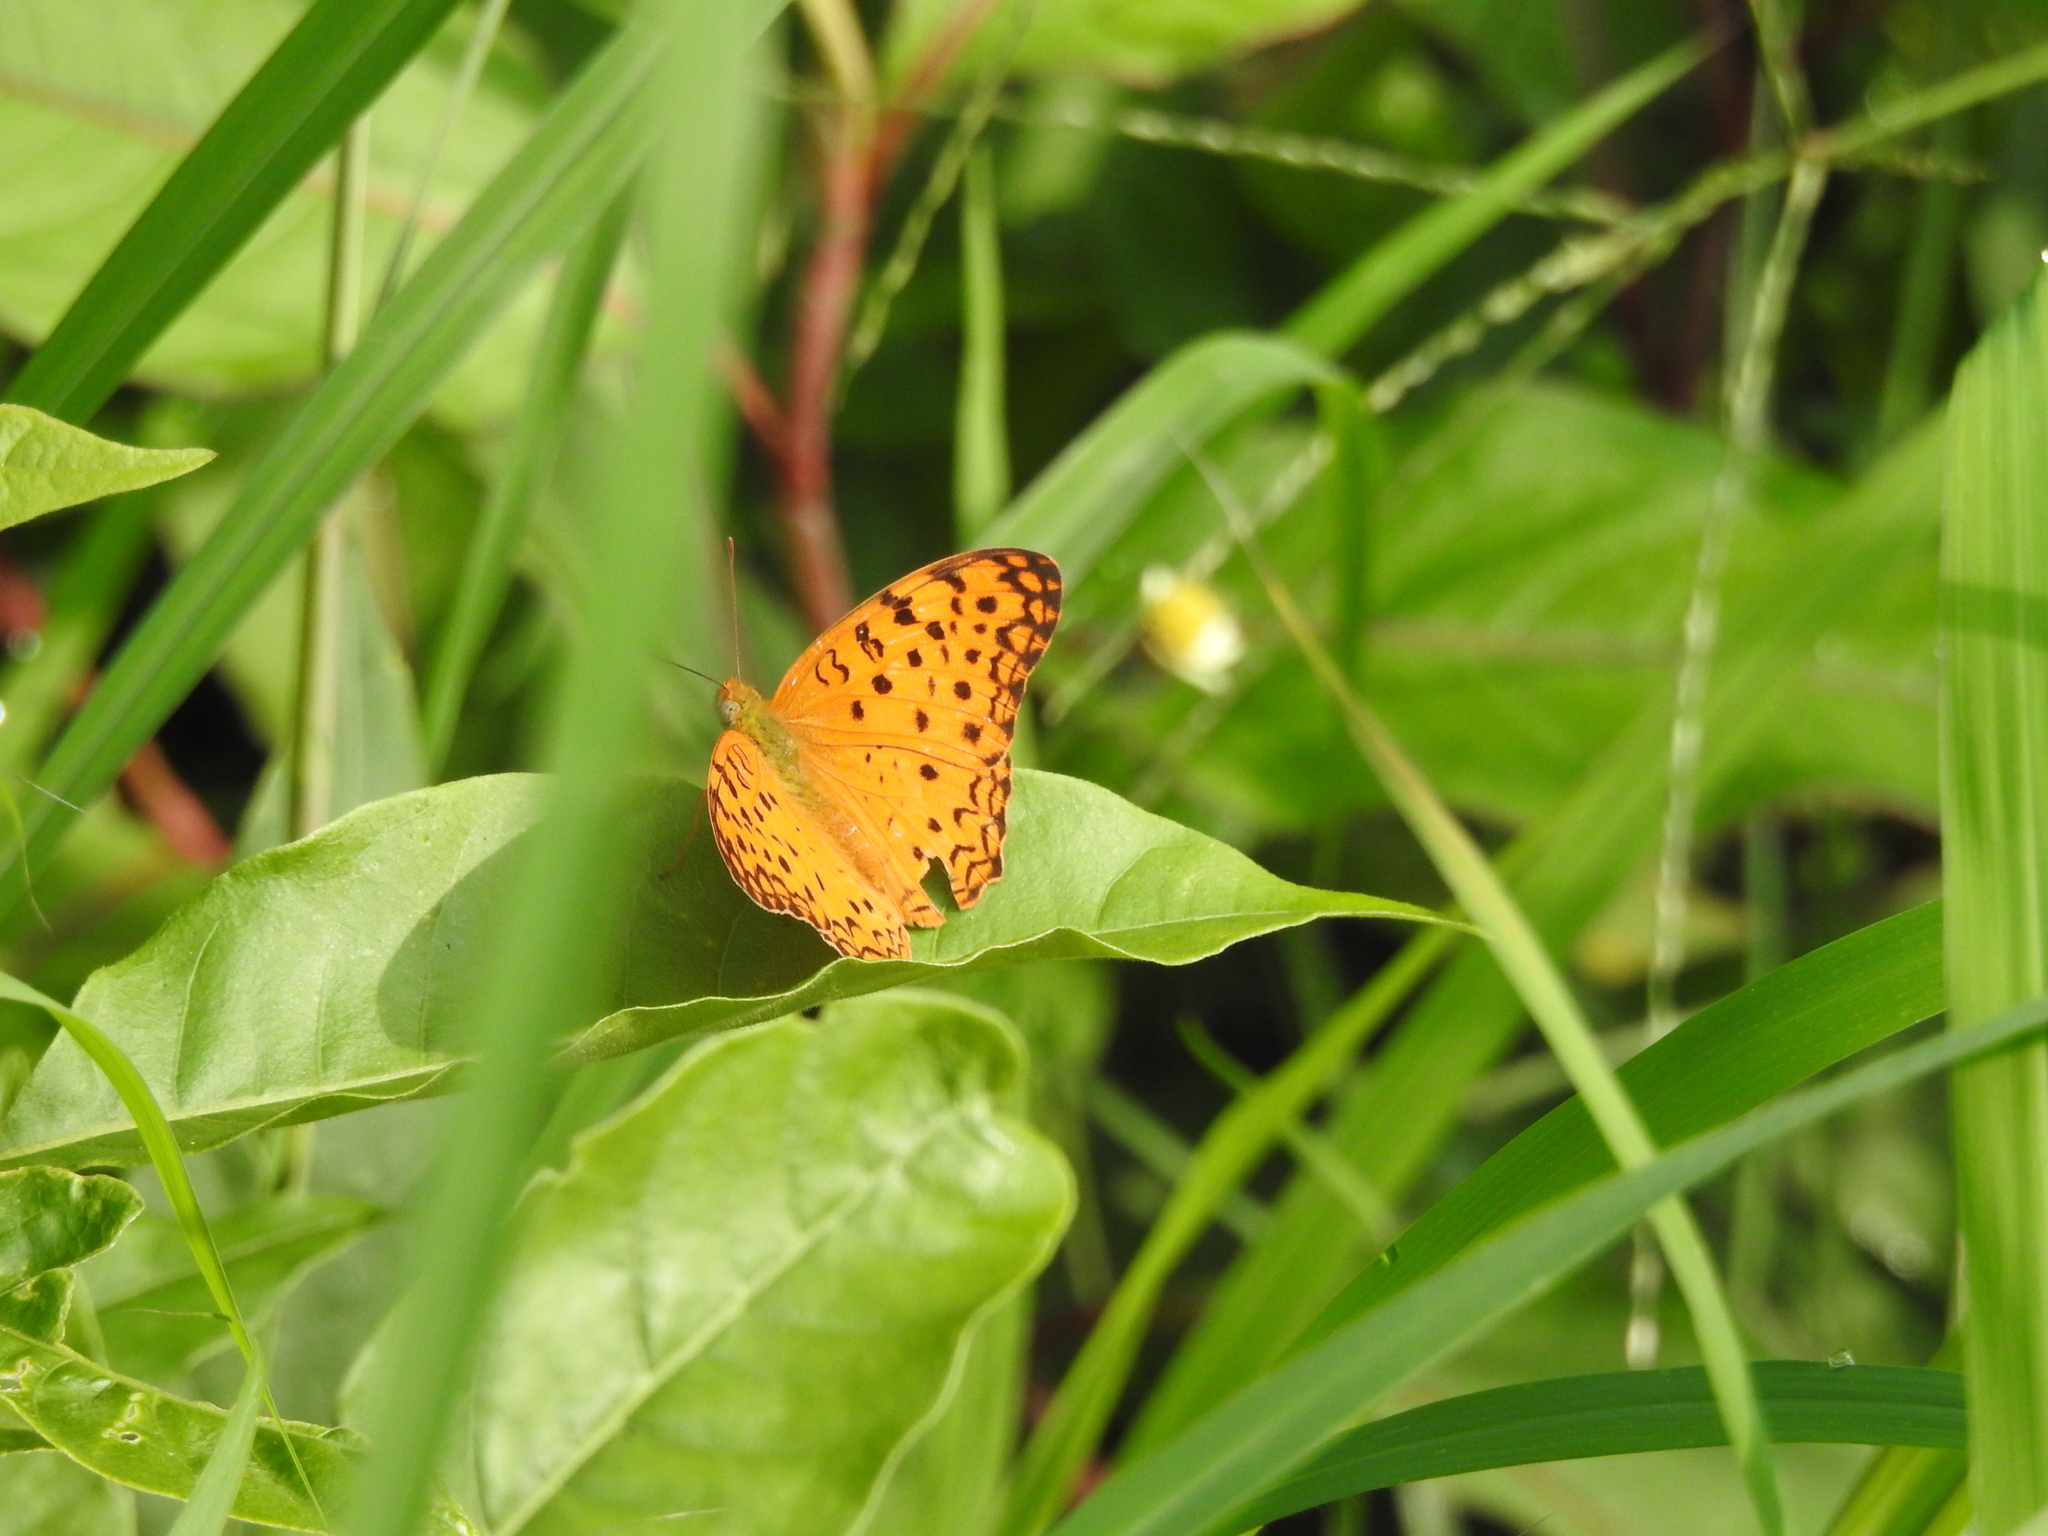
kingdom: Animalia
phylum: Arthropoda
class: Insecta
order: Lepidoptera
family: Nymphalidae
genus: Phalanta
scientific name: Phalanta phalantha
